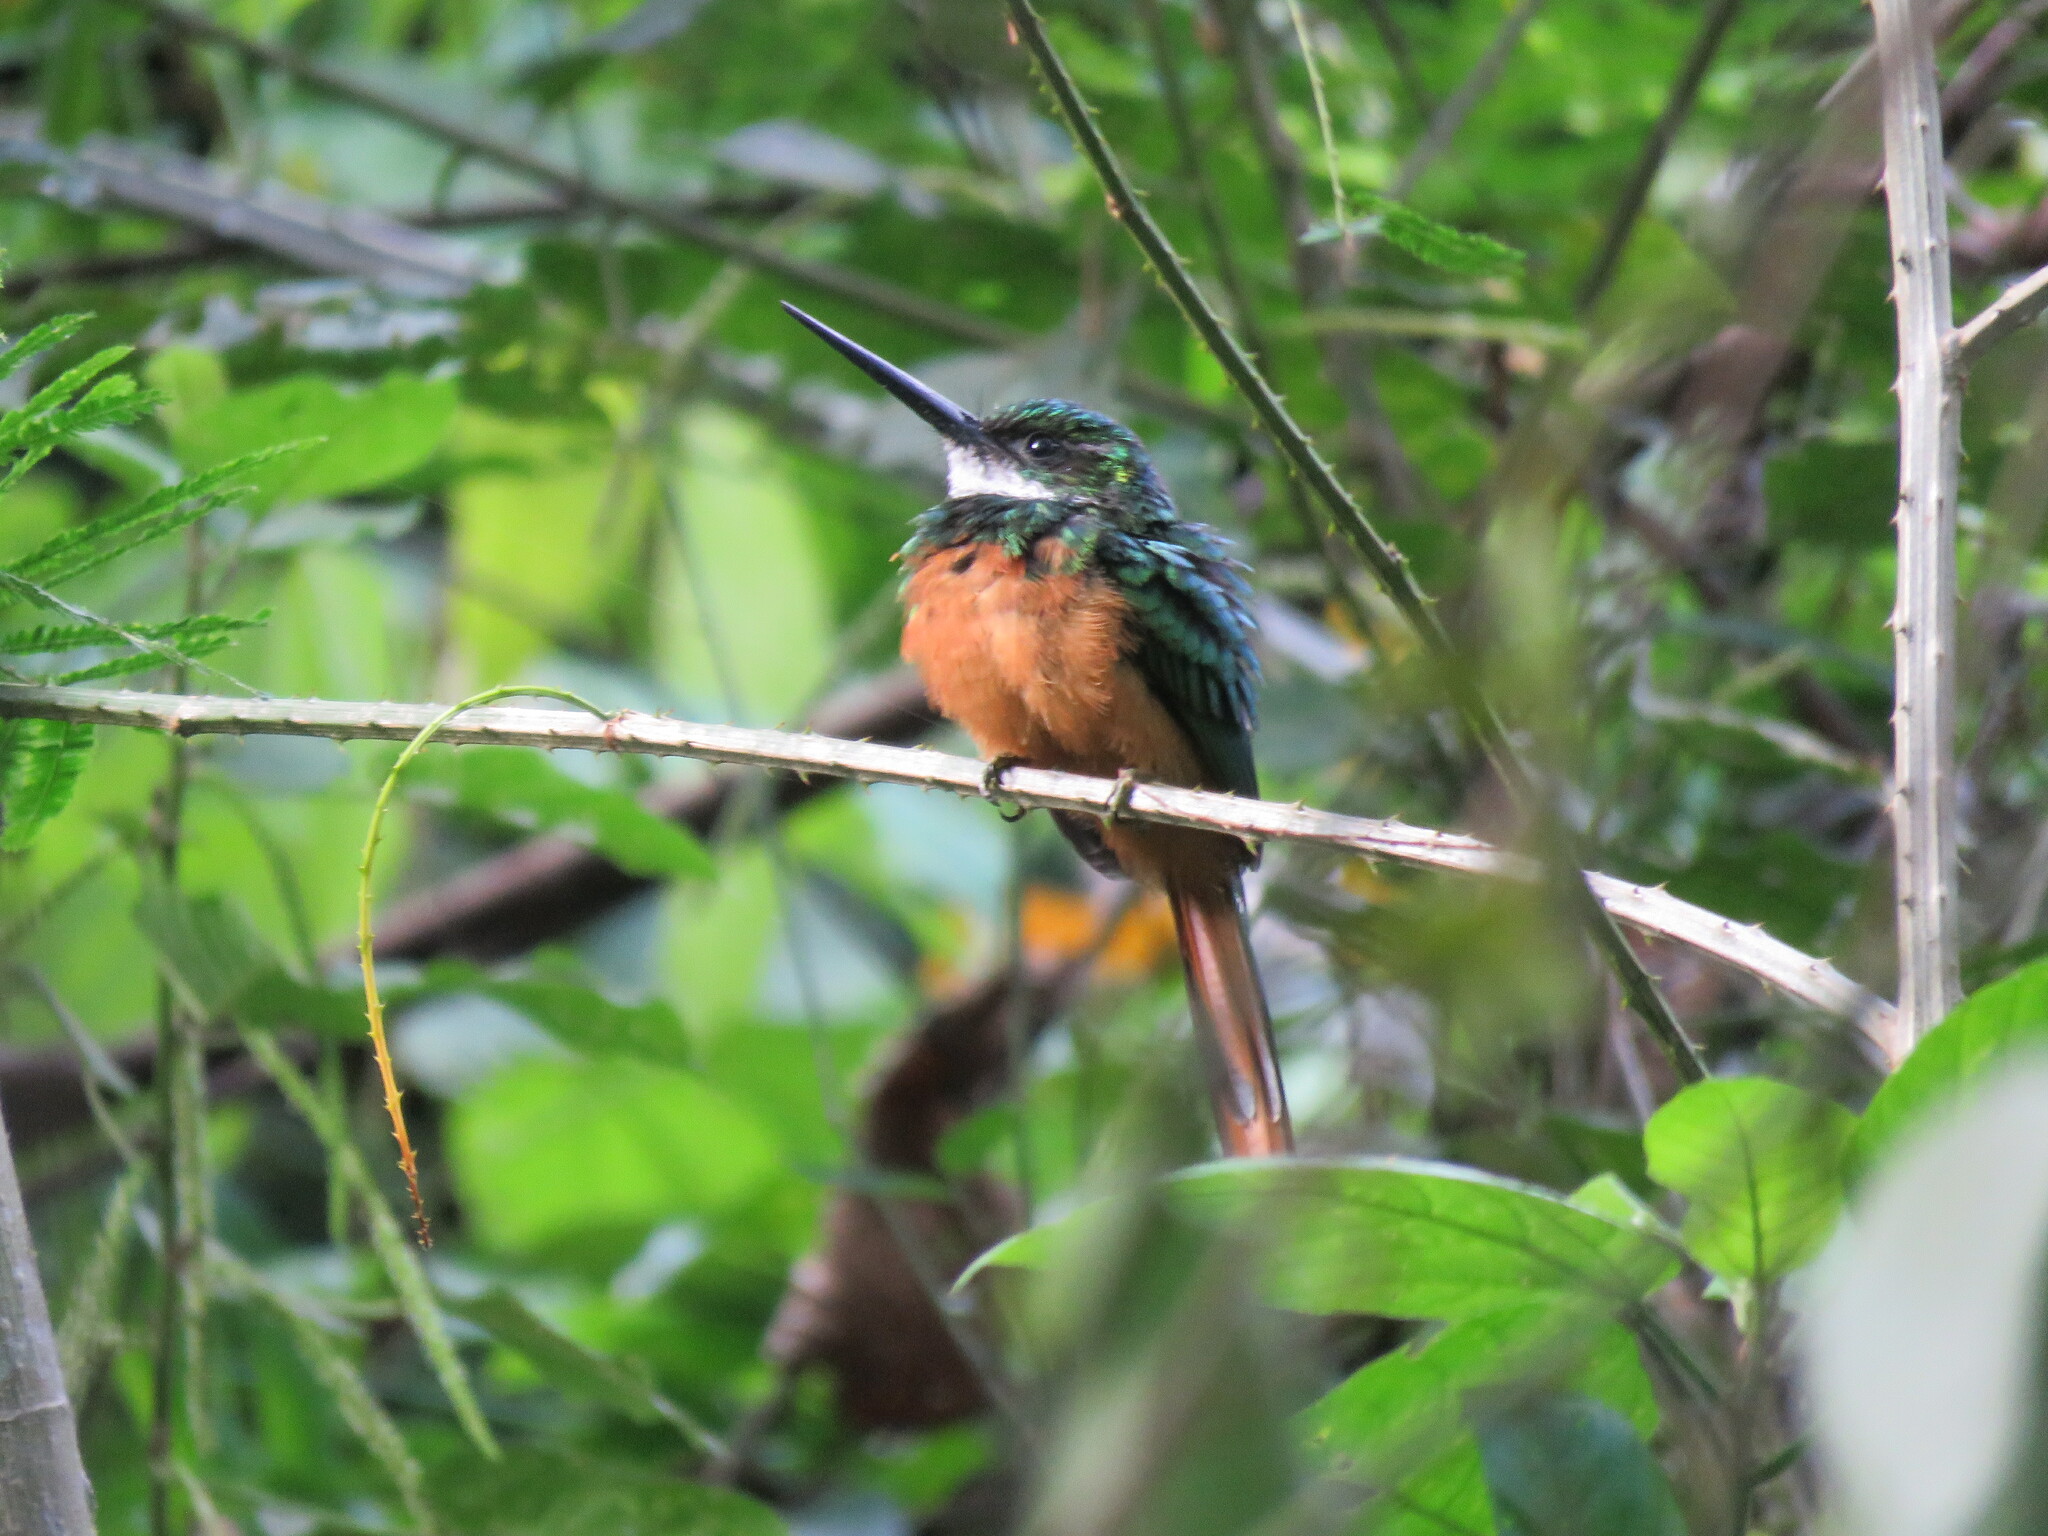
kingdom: Animalia
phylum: Chordata
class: Aves
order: Piciformes
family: Galbulidae
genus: Galbula
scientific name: Galbula ruficauda
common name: Rufous-tailed jacamar
